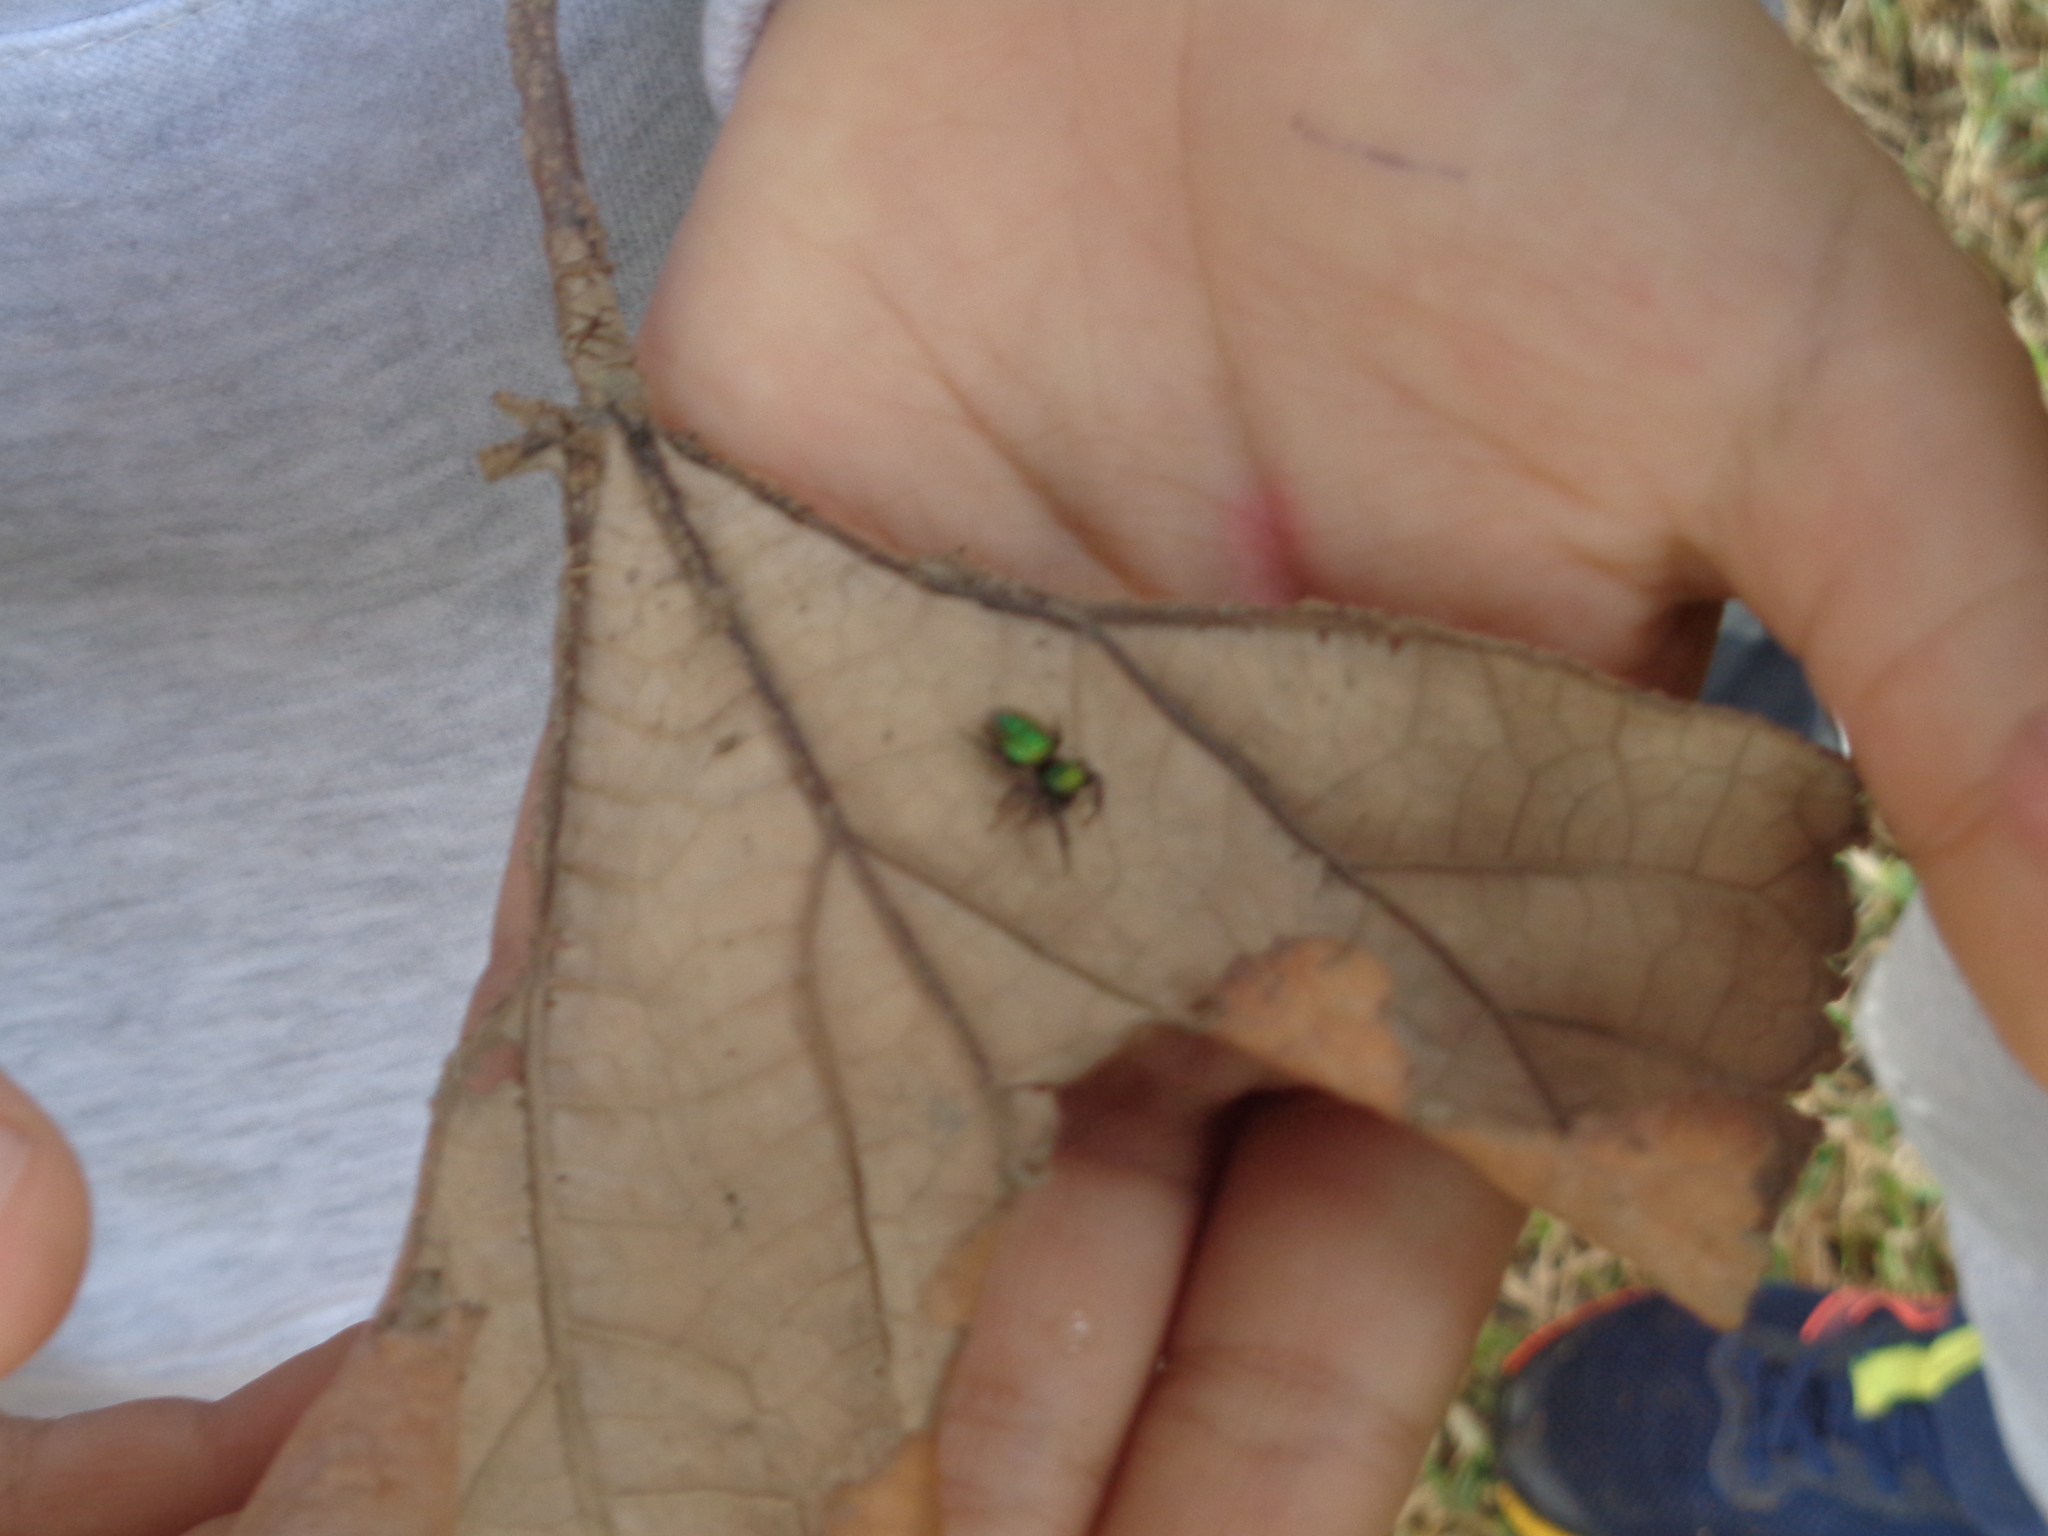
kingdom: Animalia
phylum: Arthropoda
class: Arachnida
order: Araneae
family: Salticidae
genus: Messua
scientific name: Messua limbata
